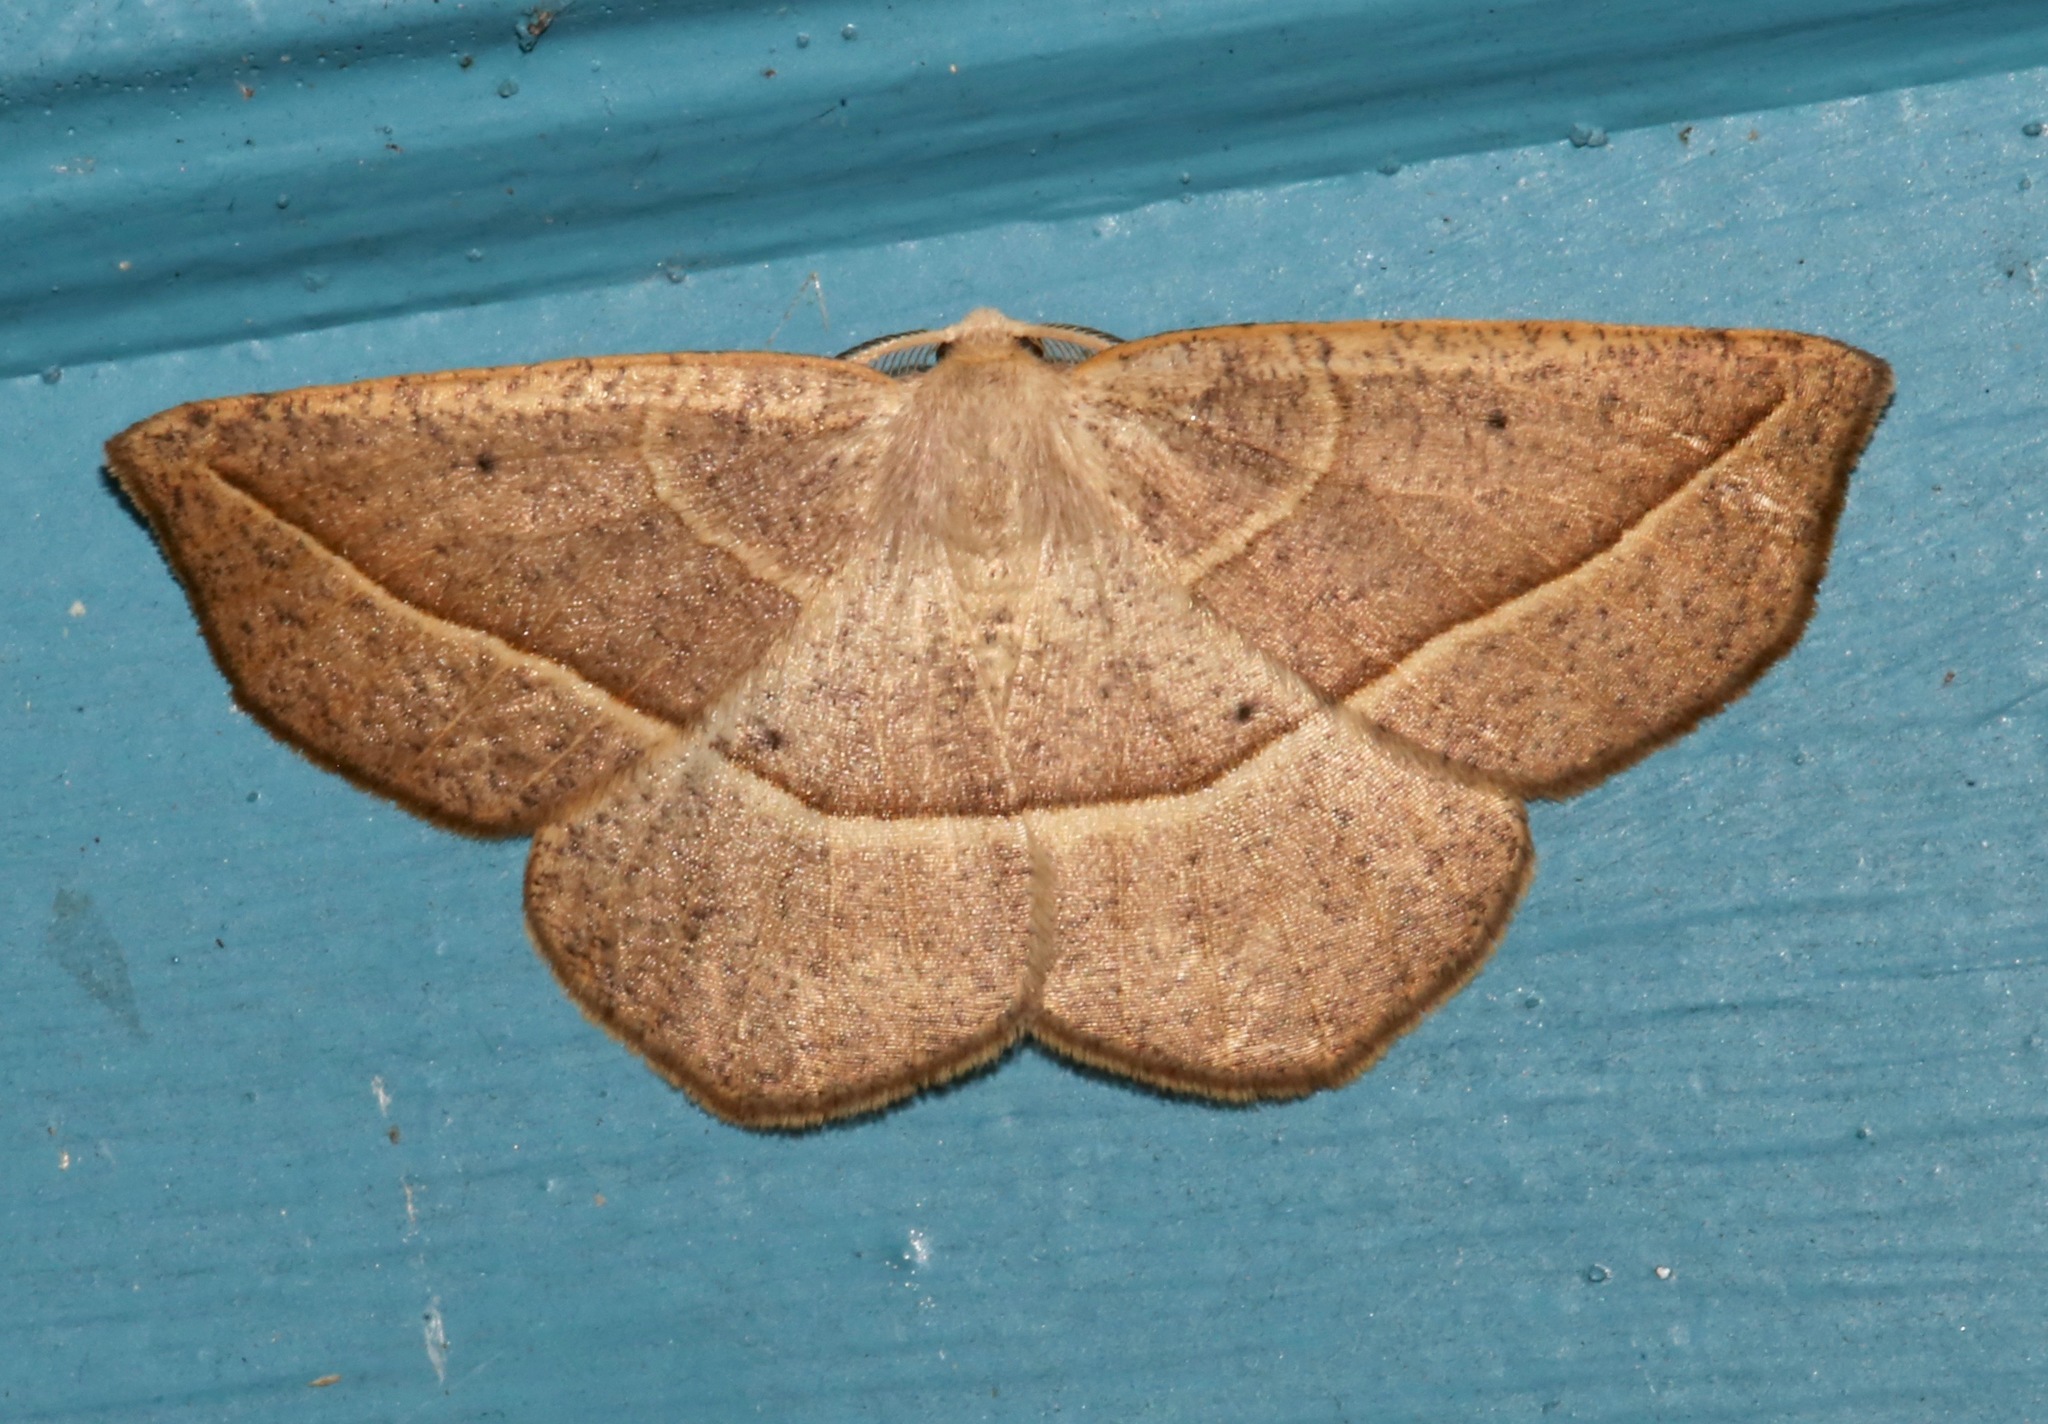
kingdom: Animalia
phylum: Arthropoda
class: Insecta
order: Lepidoptera
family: Geometridae
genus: Eusarca
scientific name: Eusarca confusaria
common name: Confused eusarca
